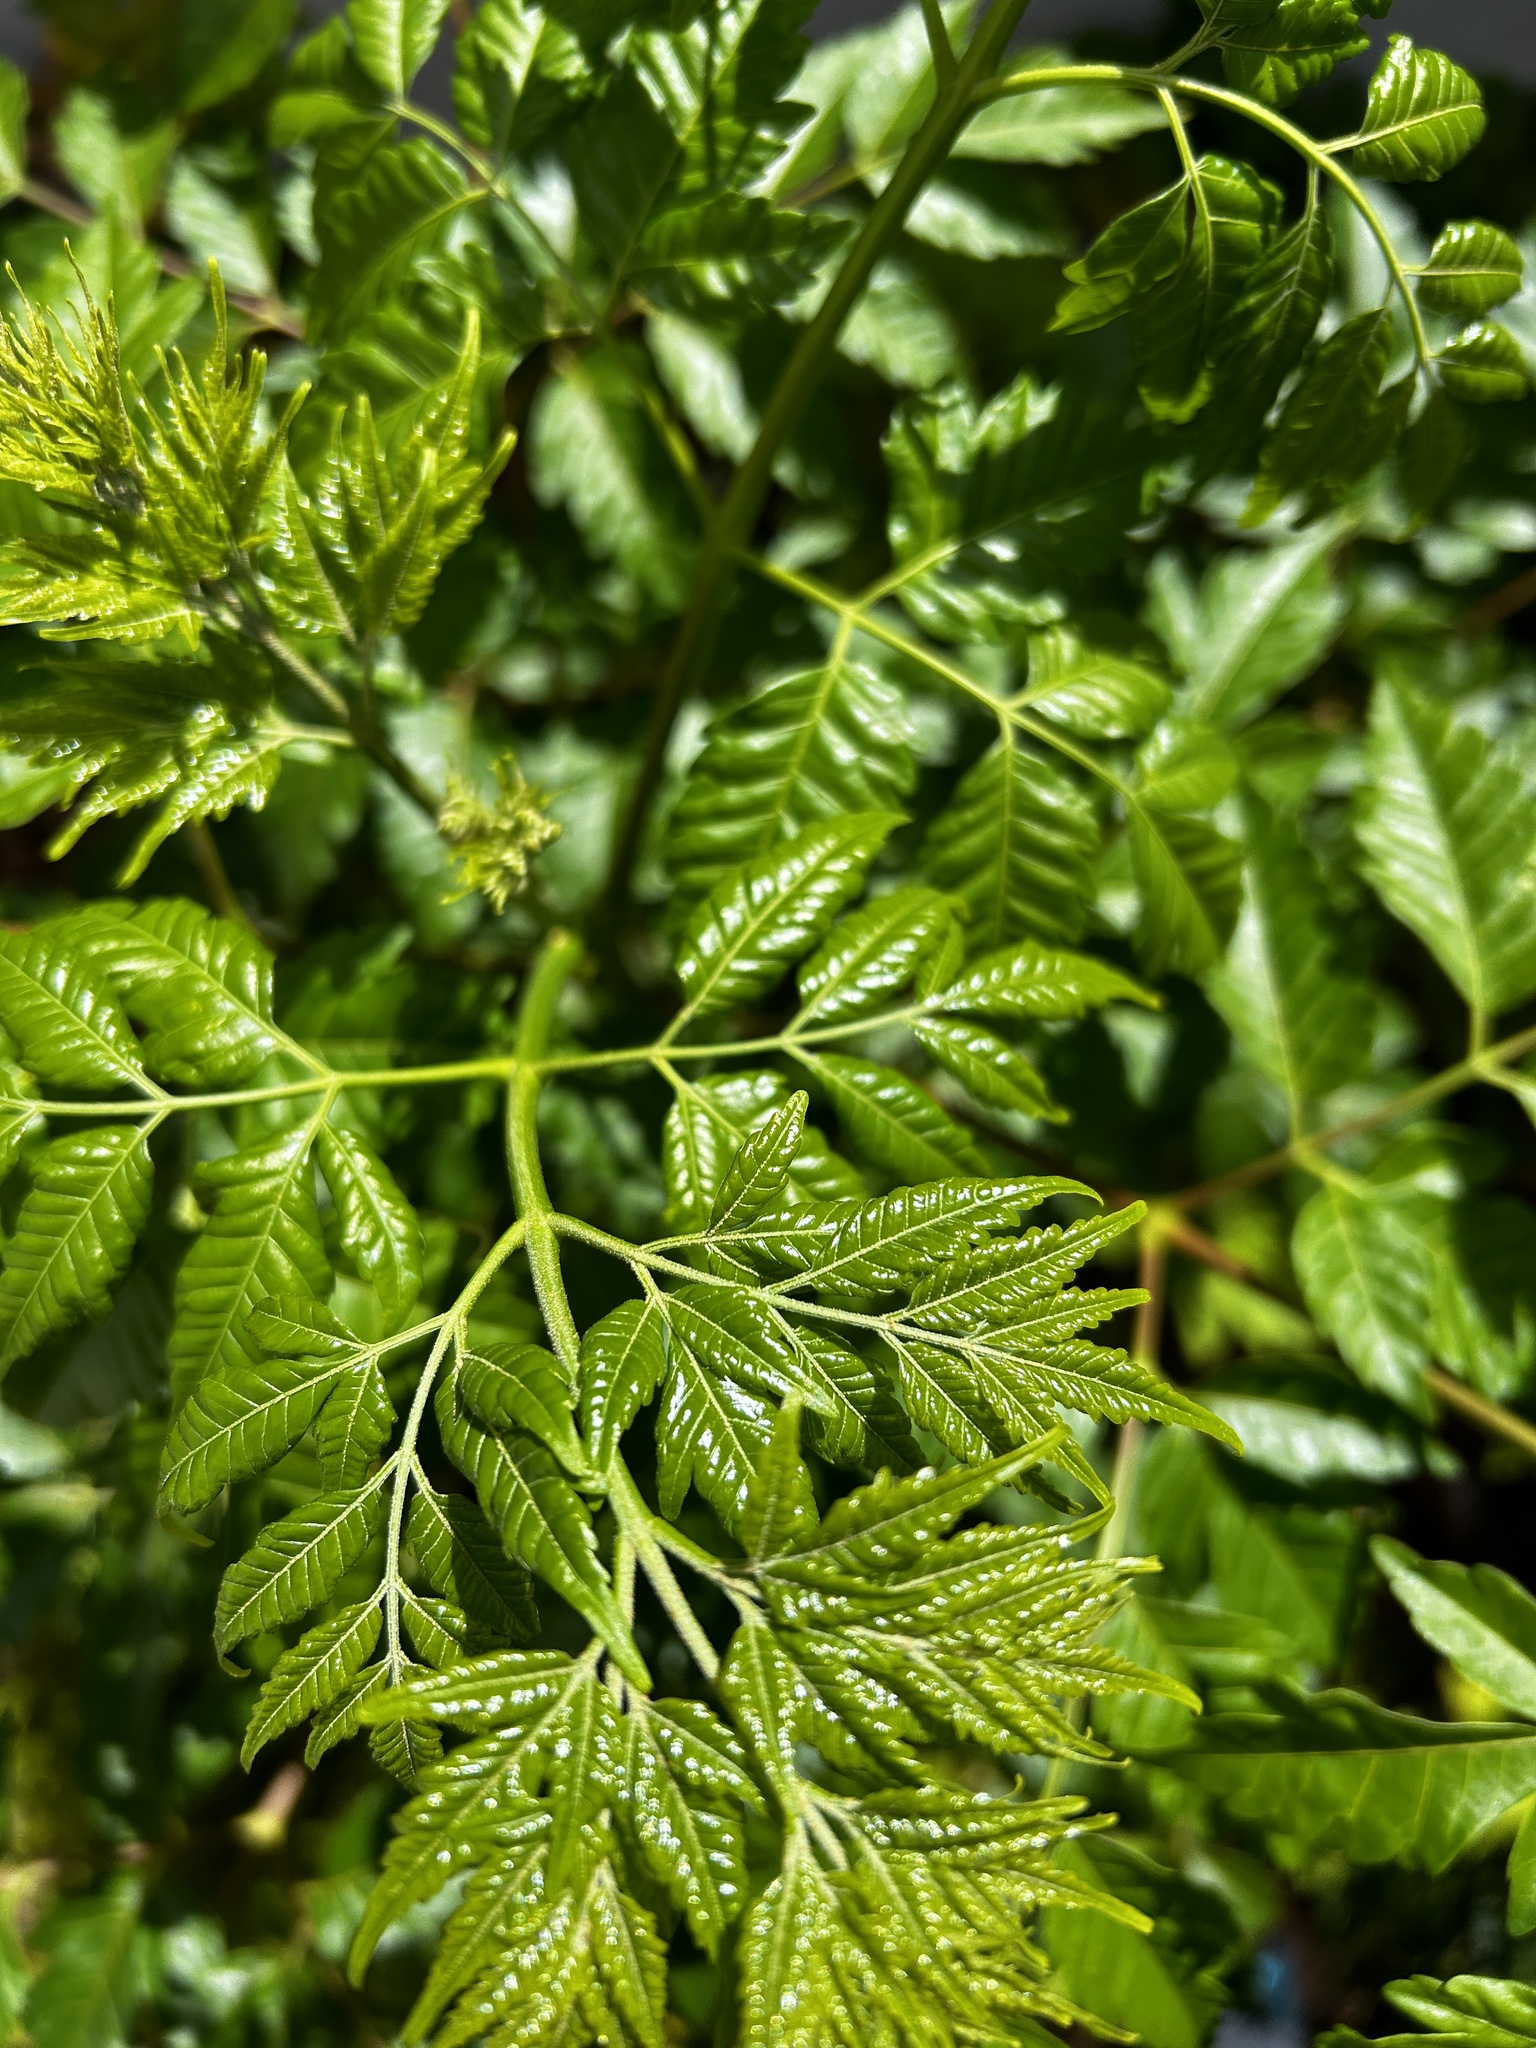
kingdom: Plantae
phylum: Tracheophyta
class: Magnoliopsida
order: Sapindales
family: Meliaceae
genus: Melia
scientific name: Melia azedarach
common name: Chinaberrytree
